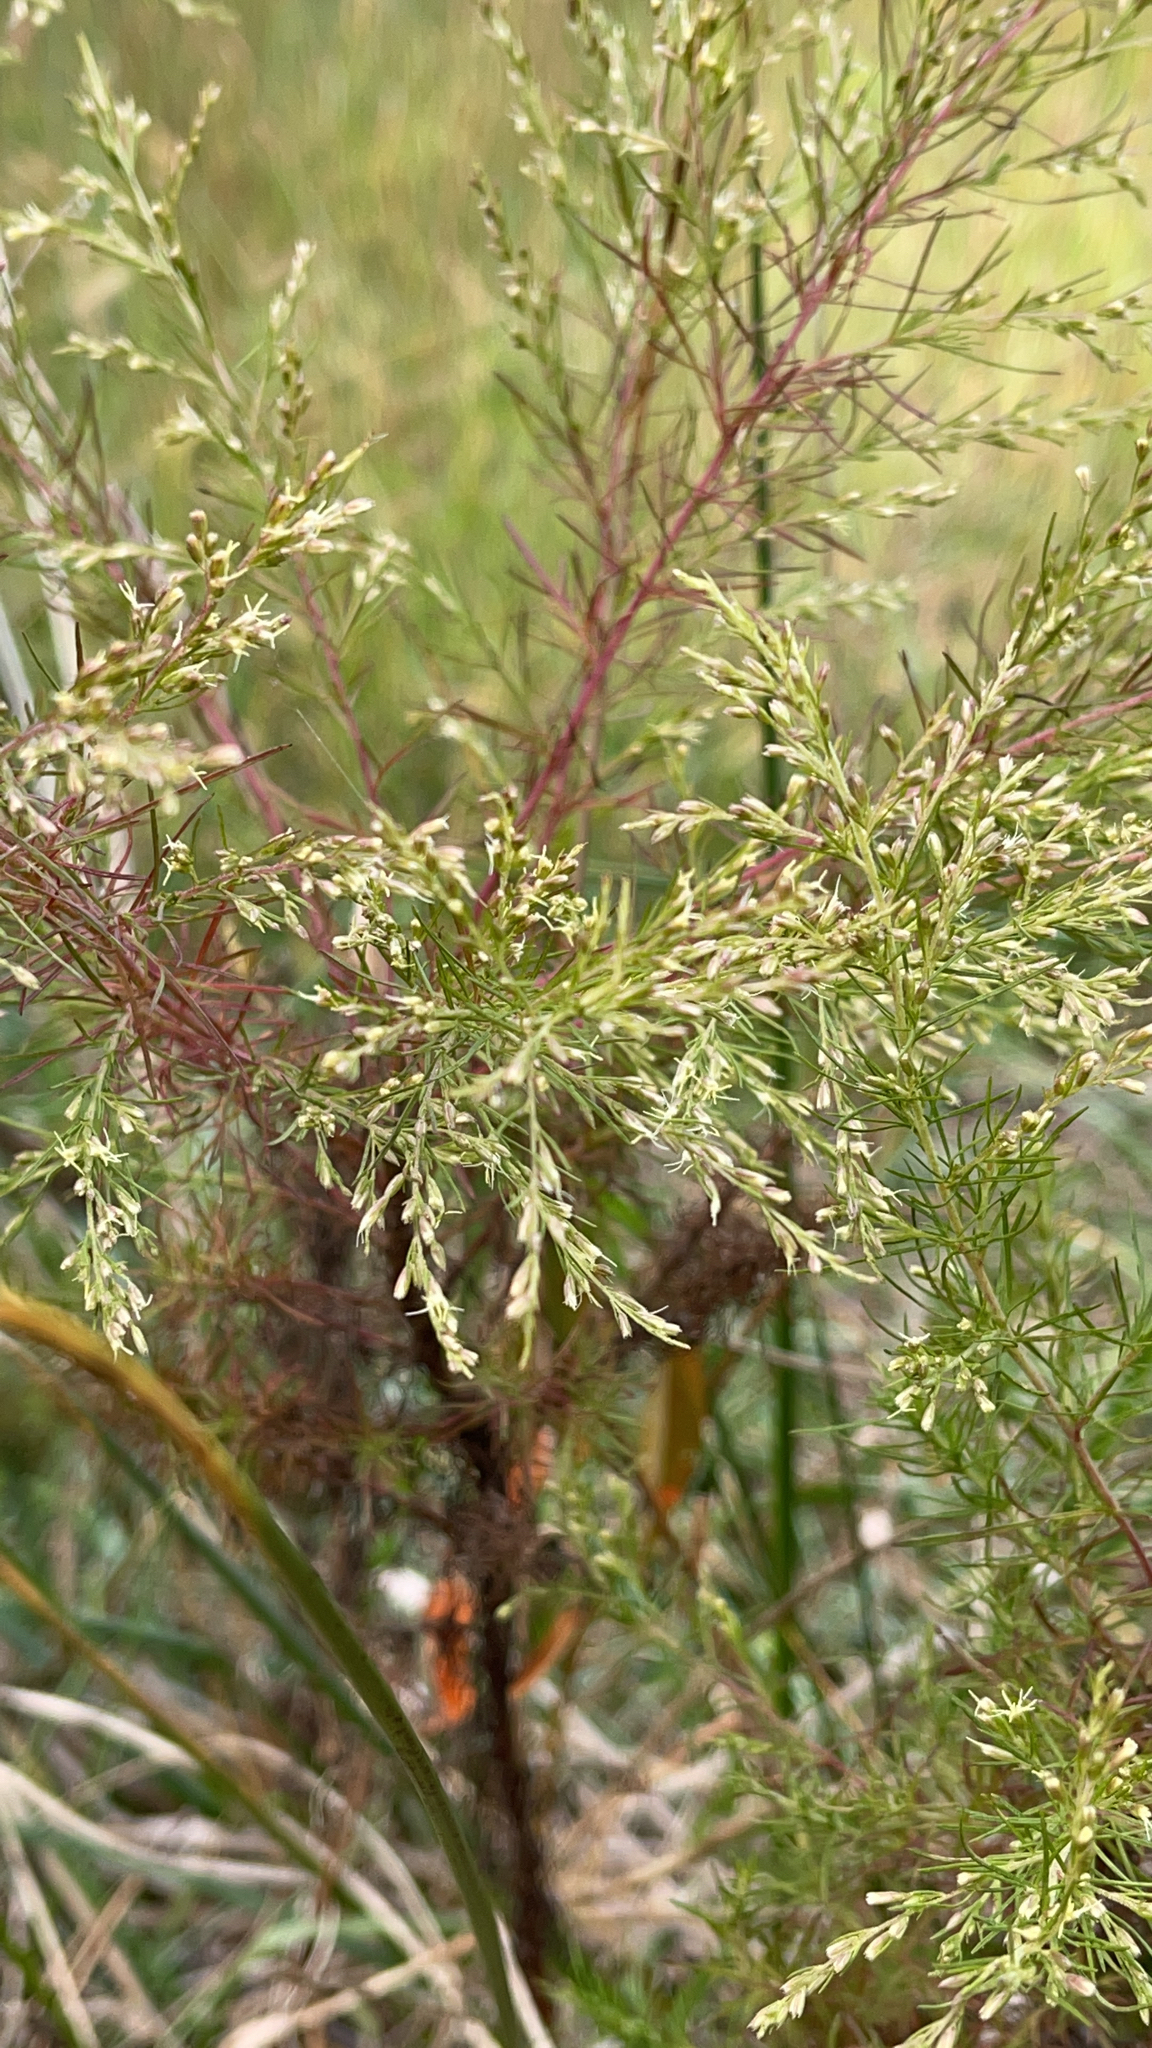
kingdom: Plantae
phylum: Tracheophyta
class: Magnoliopsida
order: Asterales
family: Asteraceae
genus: Eupatorium
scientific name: Eupatorium capillifolium
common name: Dog-fennel
